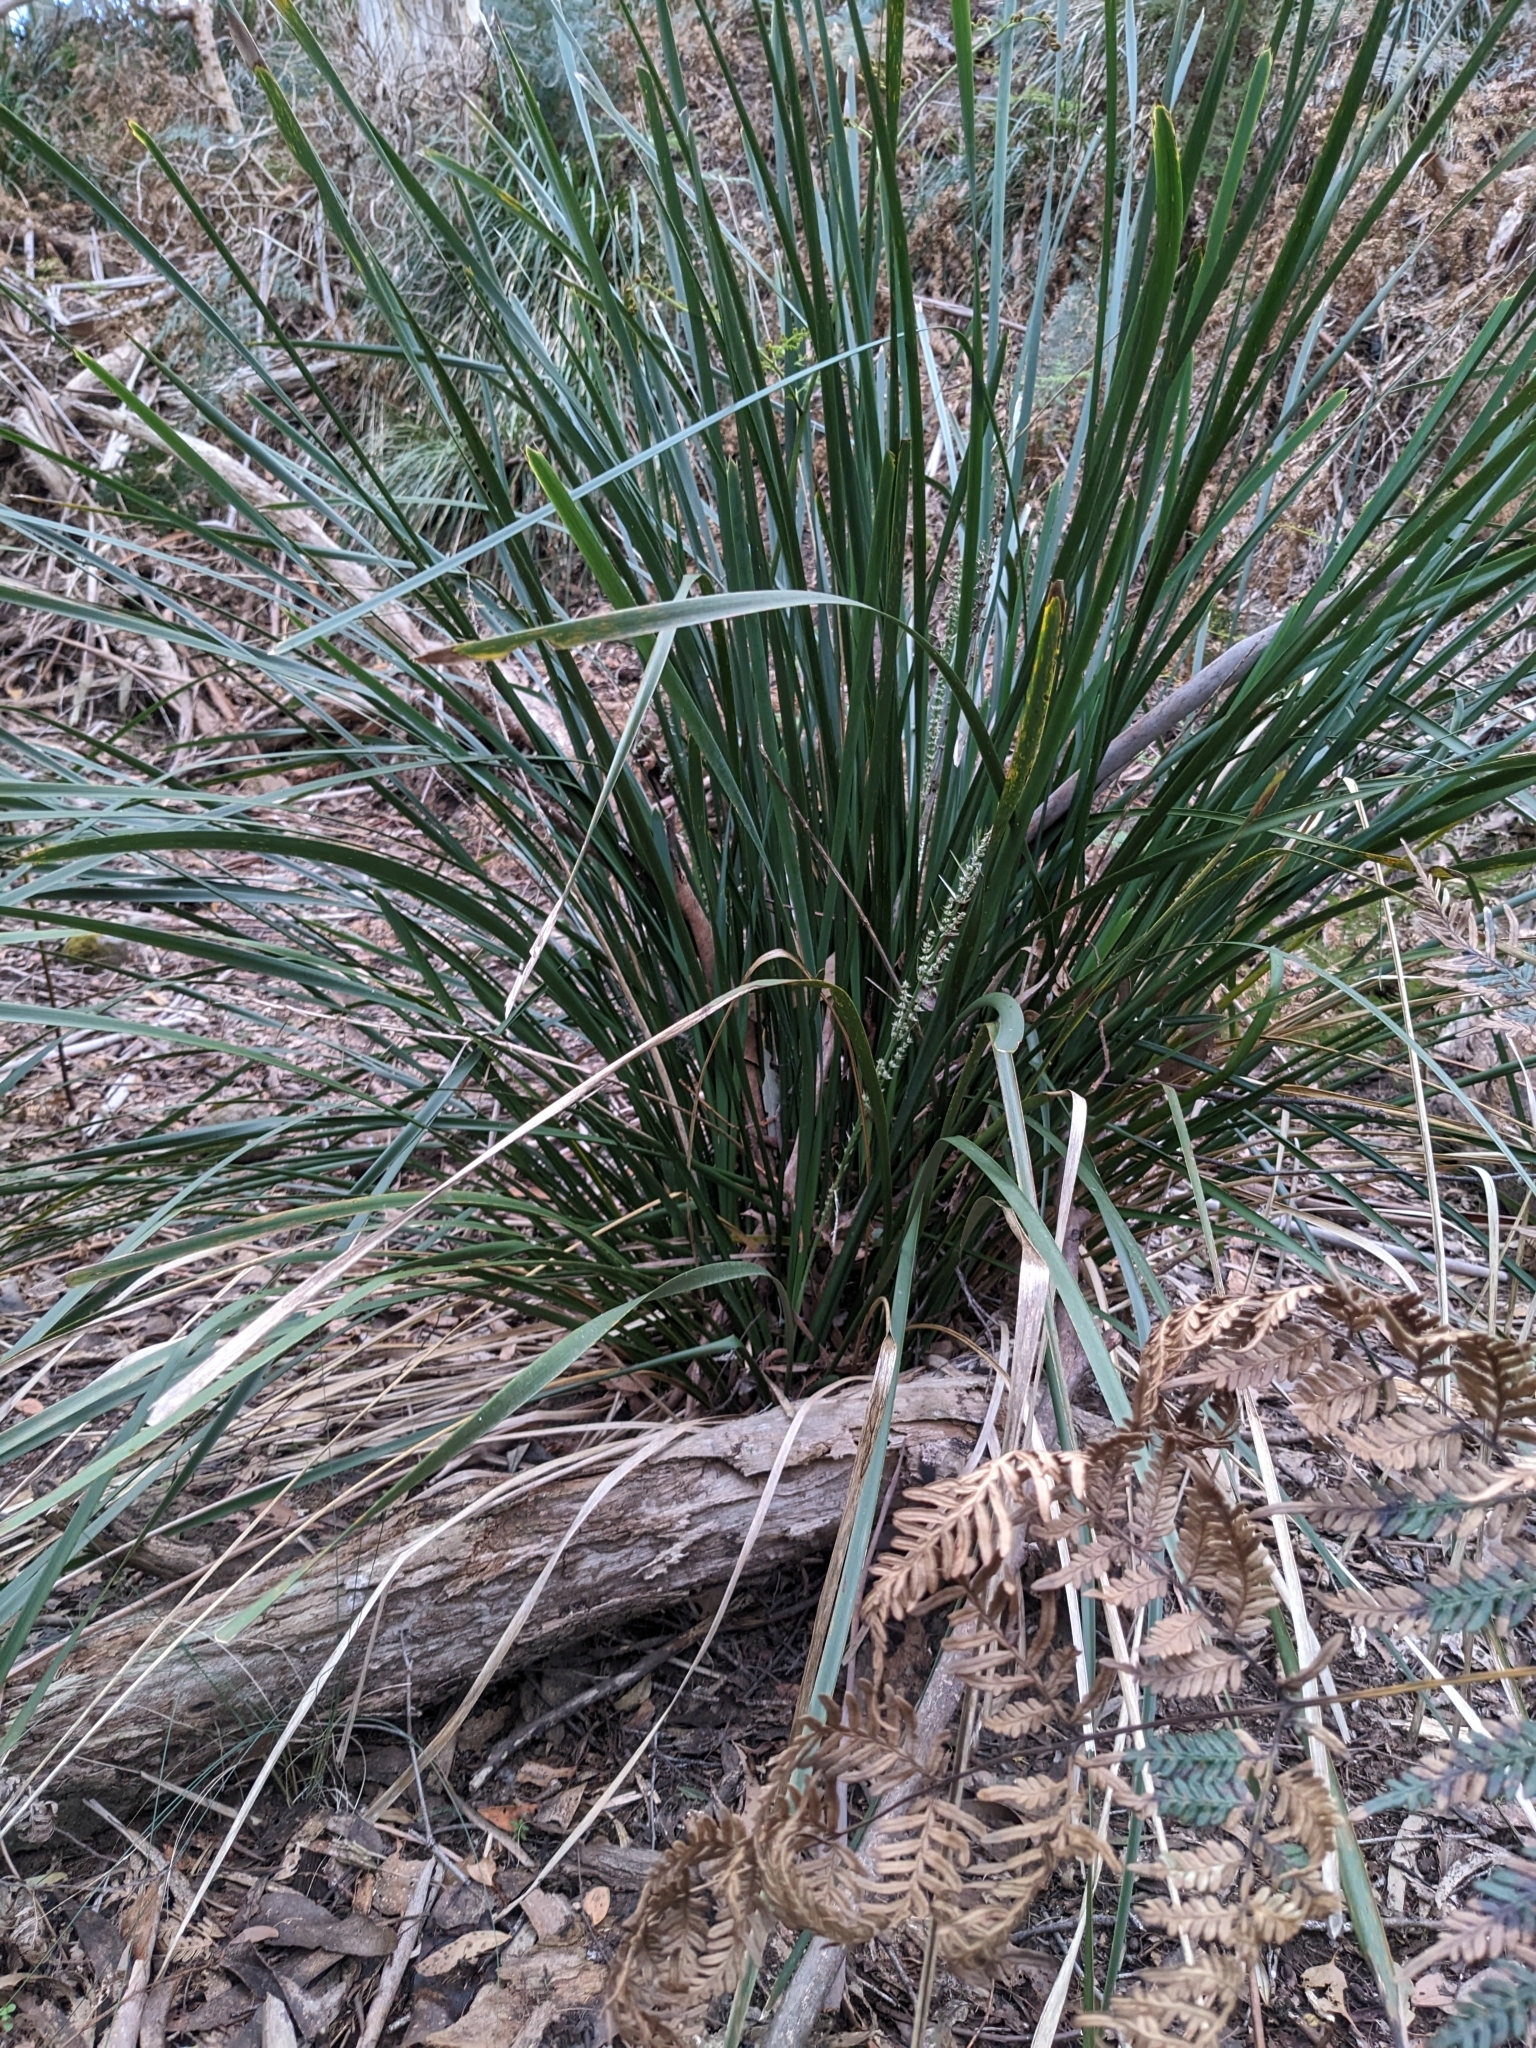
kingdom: Plantae
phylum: Tracheophyta
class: Liliopsida
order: Asparagales
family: Asparagaceae
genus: Lomandra
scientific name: Lomandra longifolia
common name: Longleaf mat-rush
